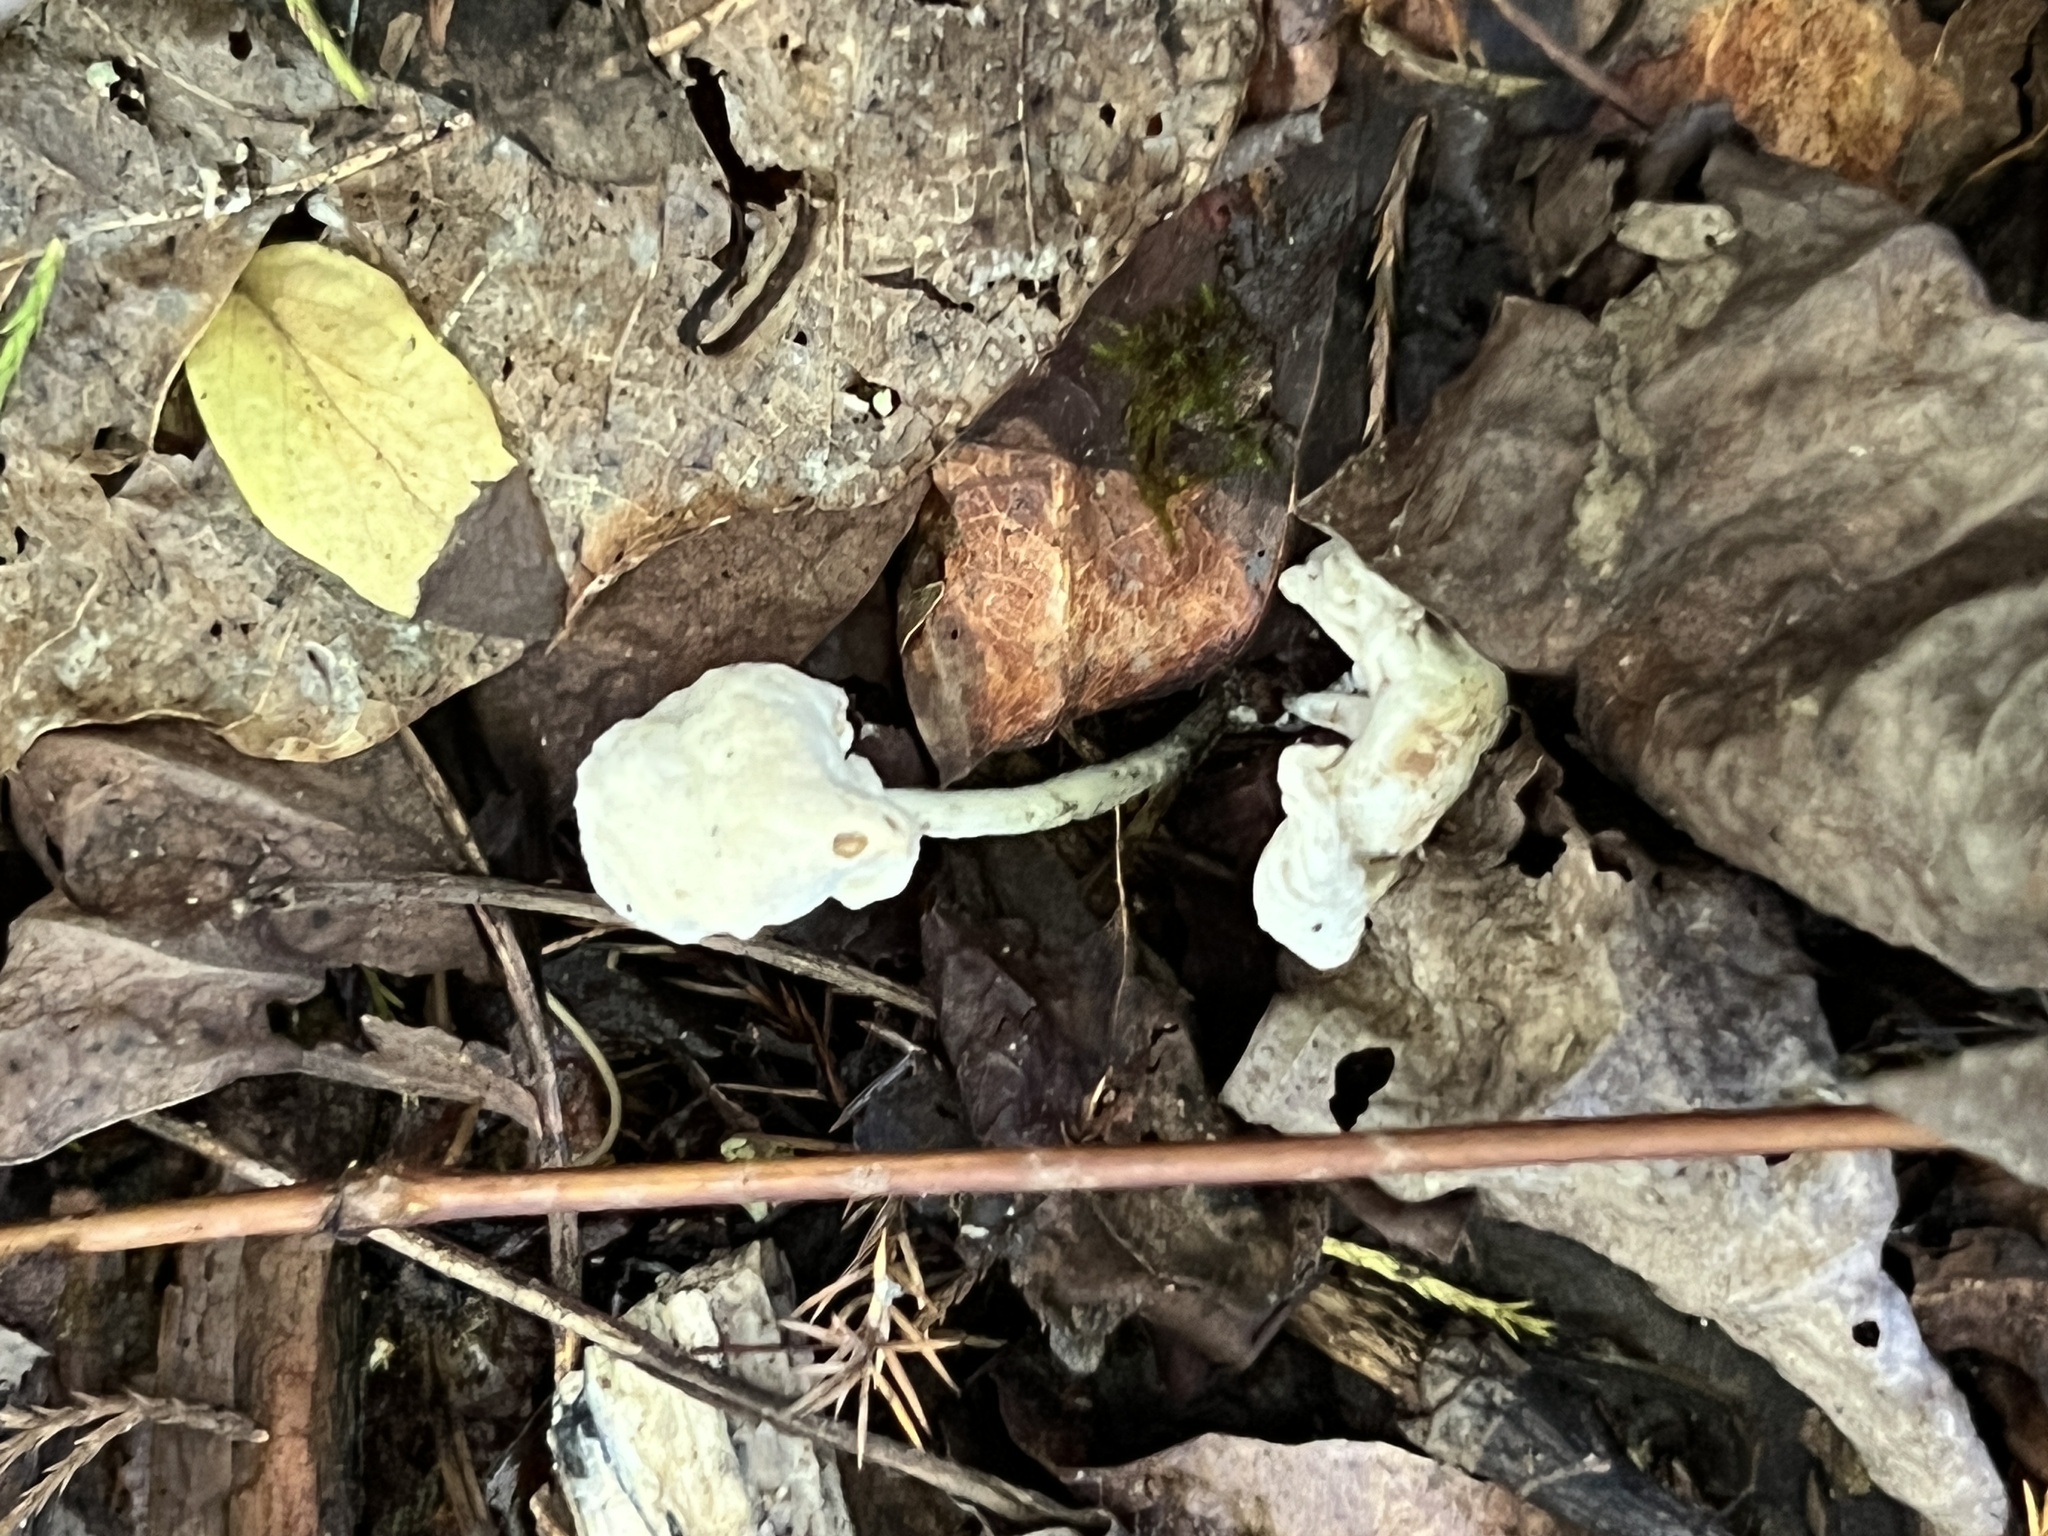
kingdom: Fungi
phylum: Ascomycota
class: Sordariomycetes
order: Hypocreales
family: Cordycipitaceae
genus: Lecanicillium
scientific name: Lecanicillium fungicola
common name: Verticillium dry bubble
